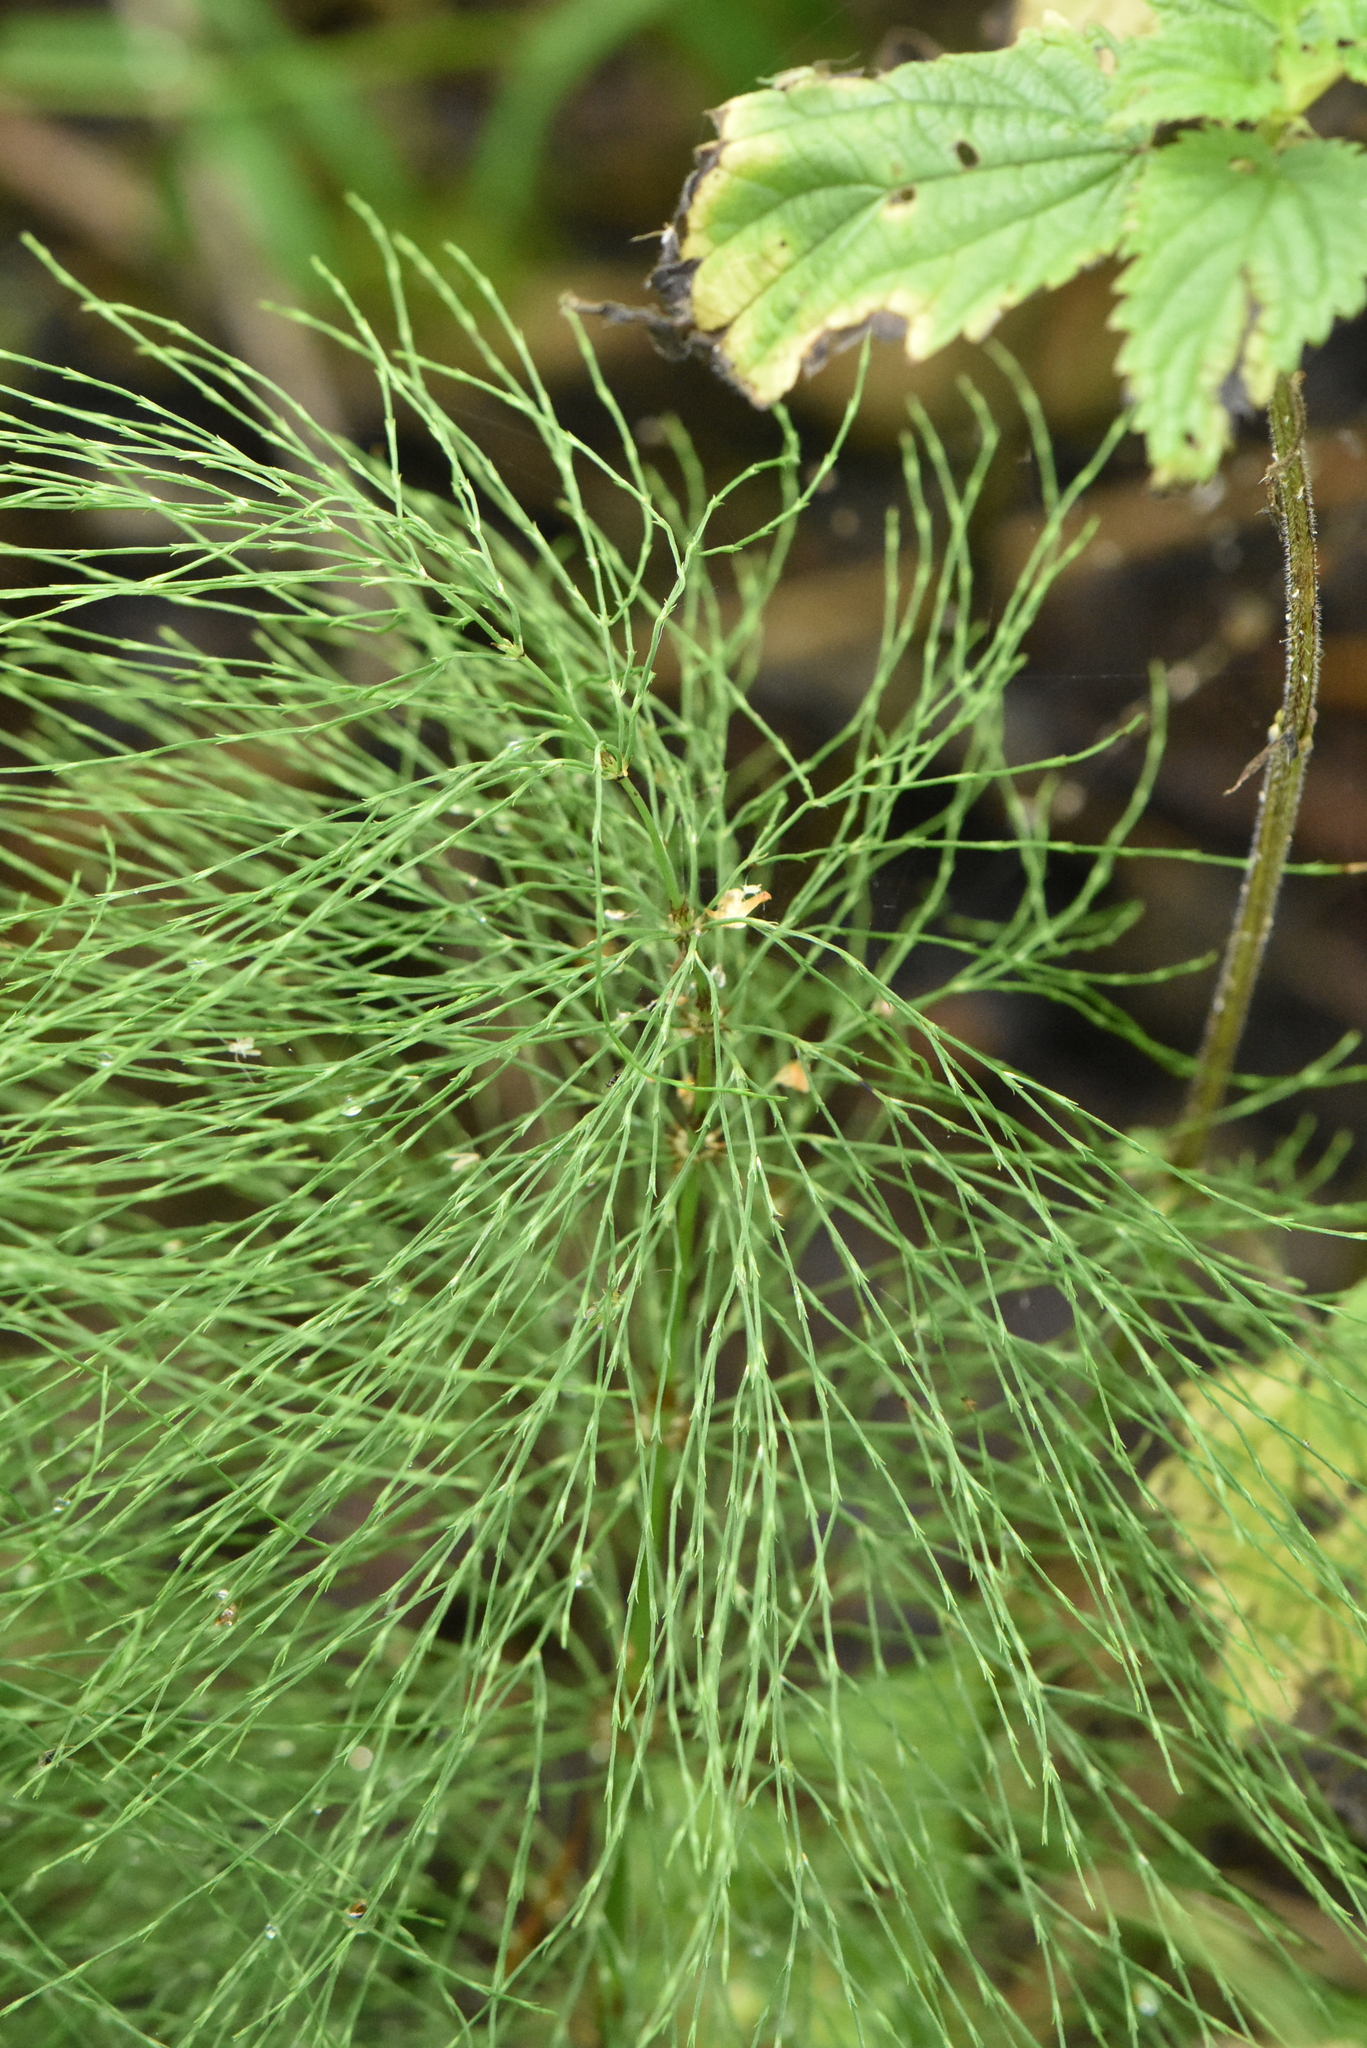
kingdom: Plantae
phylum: Tracheophyta
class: Polypodiopsida
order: Equisetales
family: Equisetaceae
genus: Equisetum
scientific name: Equisetum sylvaticum
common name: Wood horsetail
